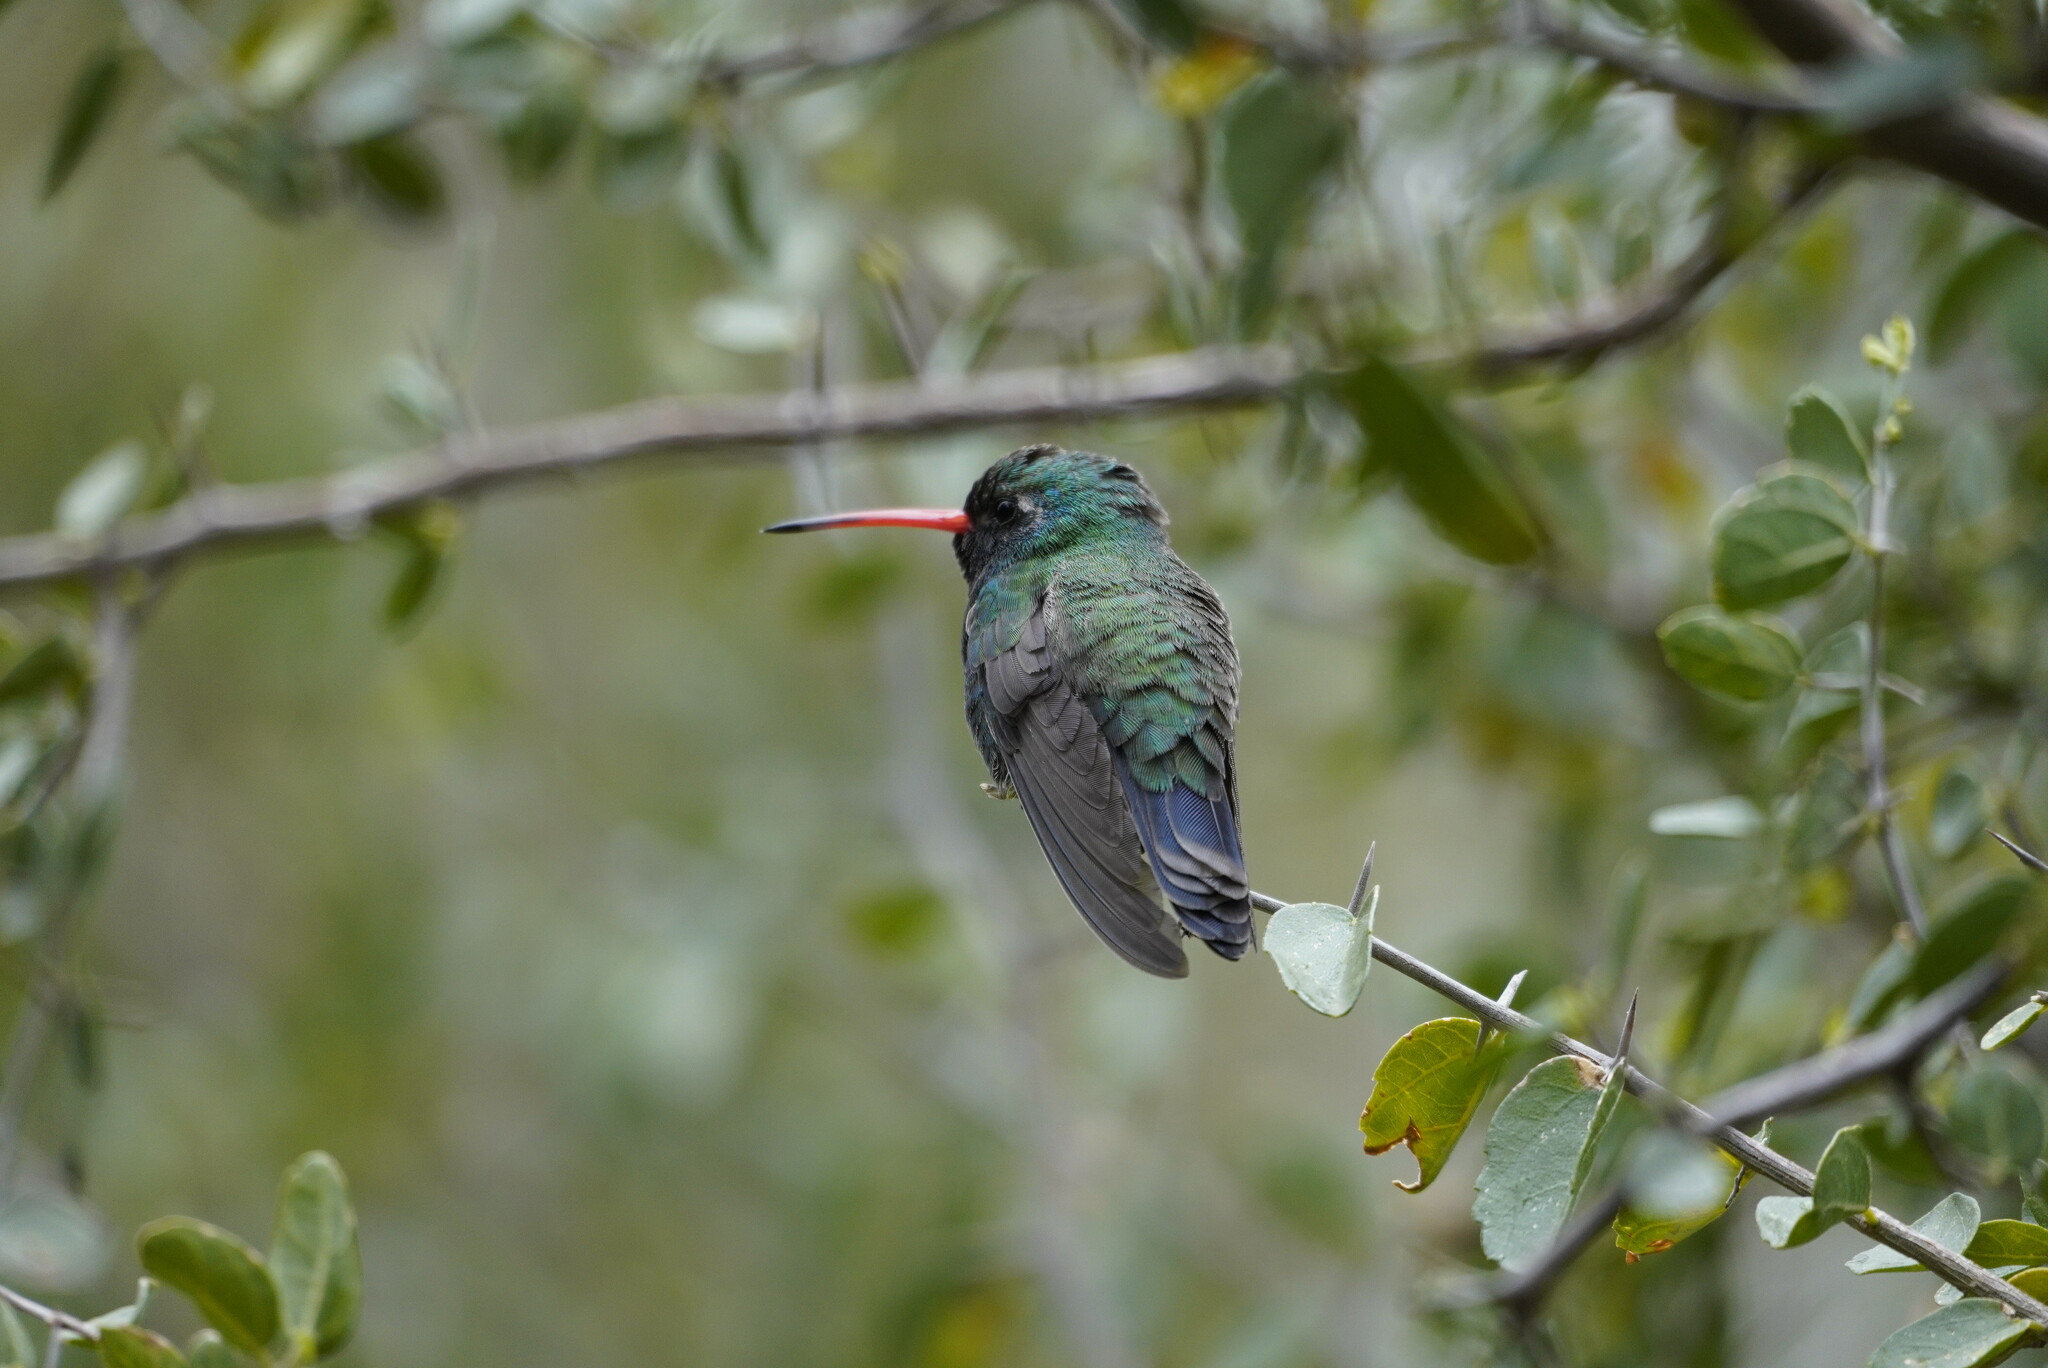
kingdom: Animalia
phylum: Chordata
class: Aves
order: Apodiformes
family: Trochilidae
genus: Cynanthus
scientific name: Cynanthus latirostris
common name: Broad-billed hummingbird
